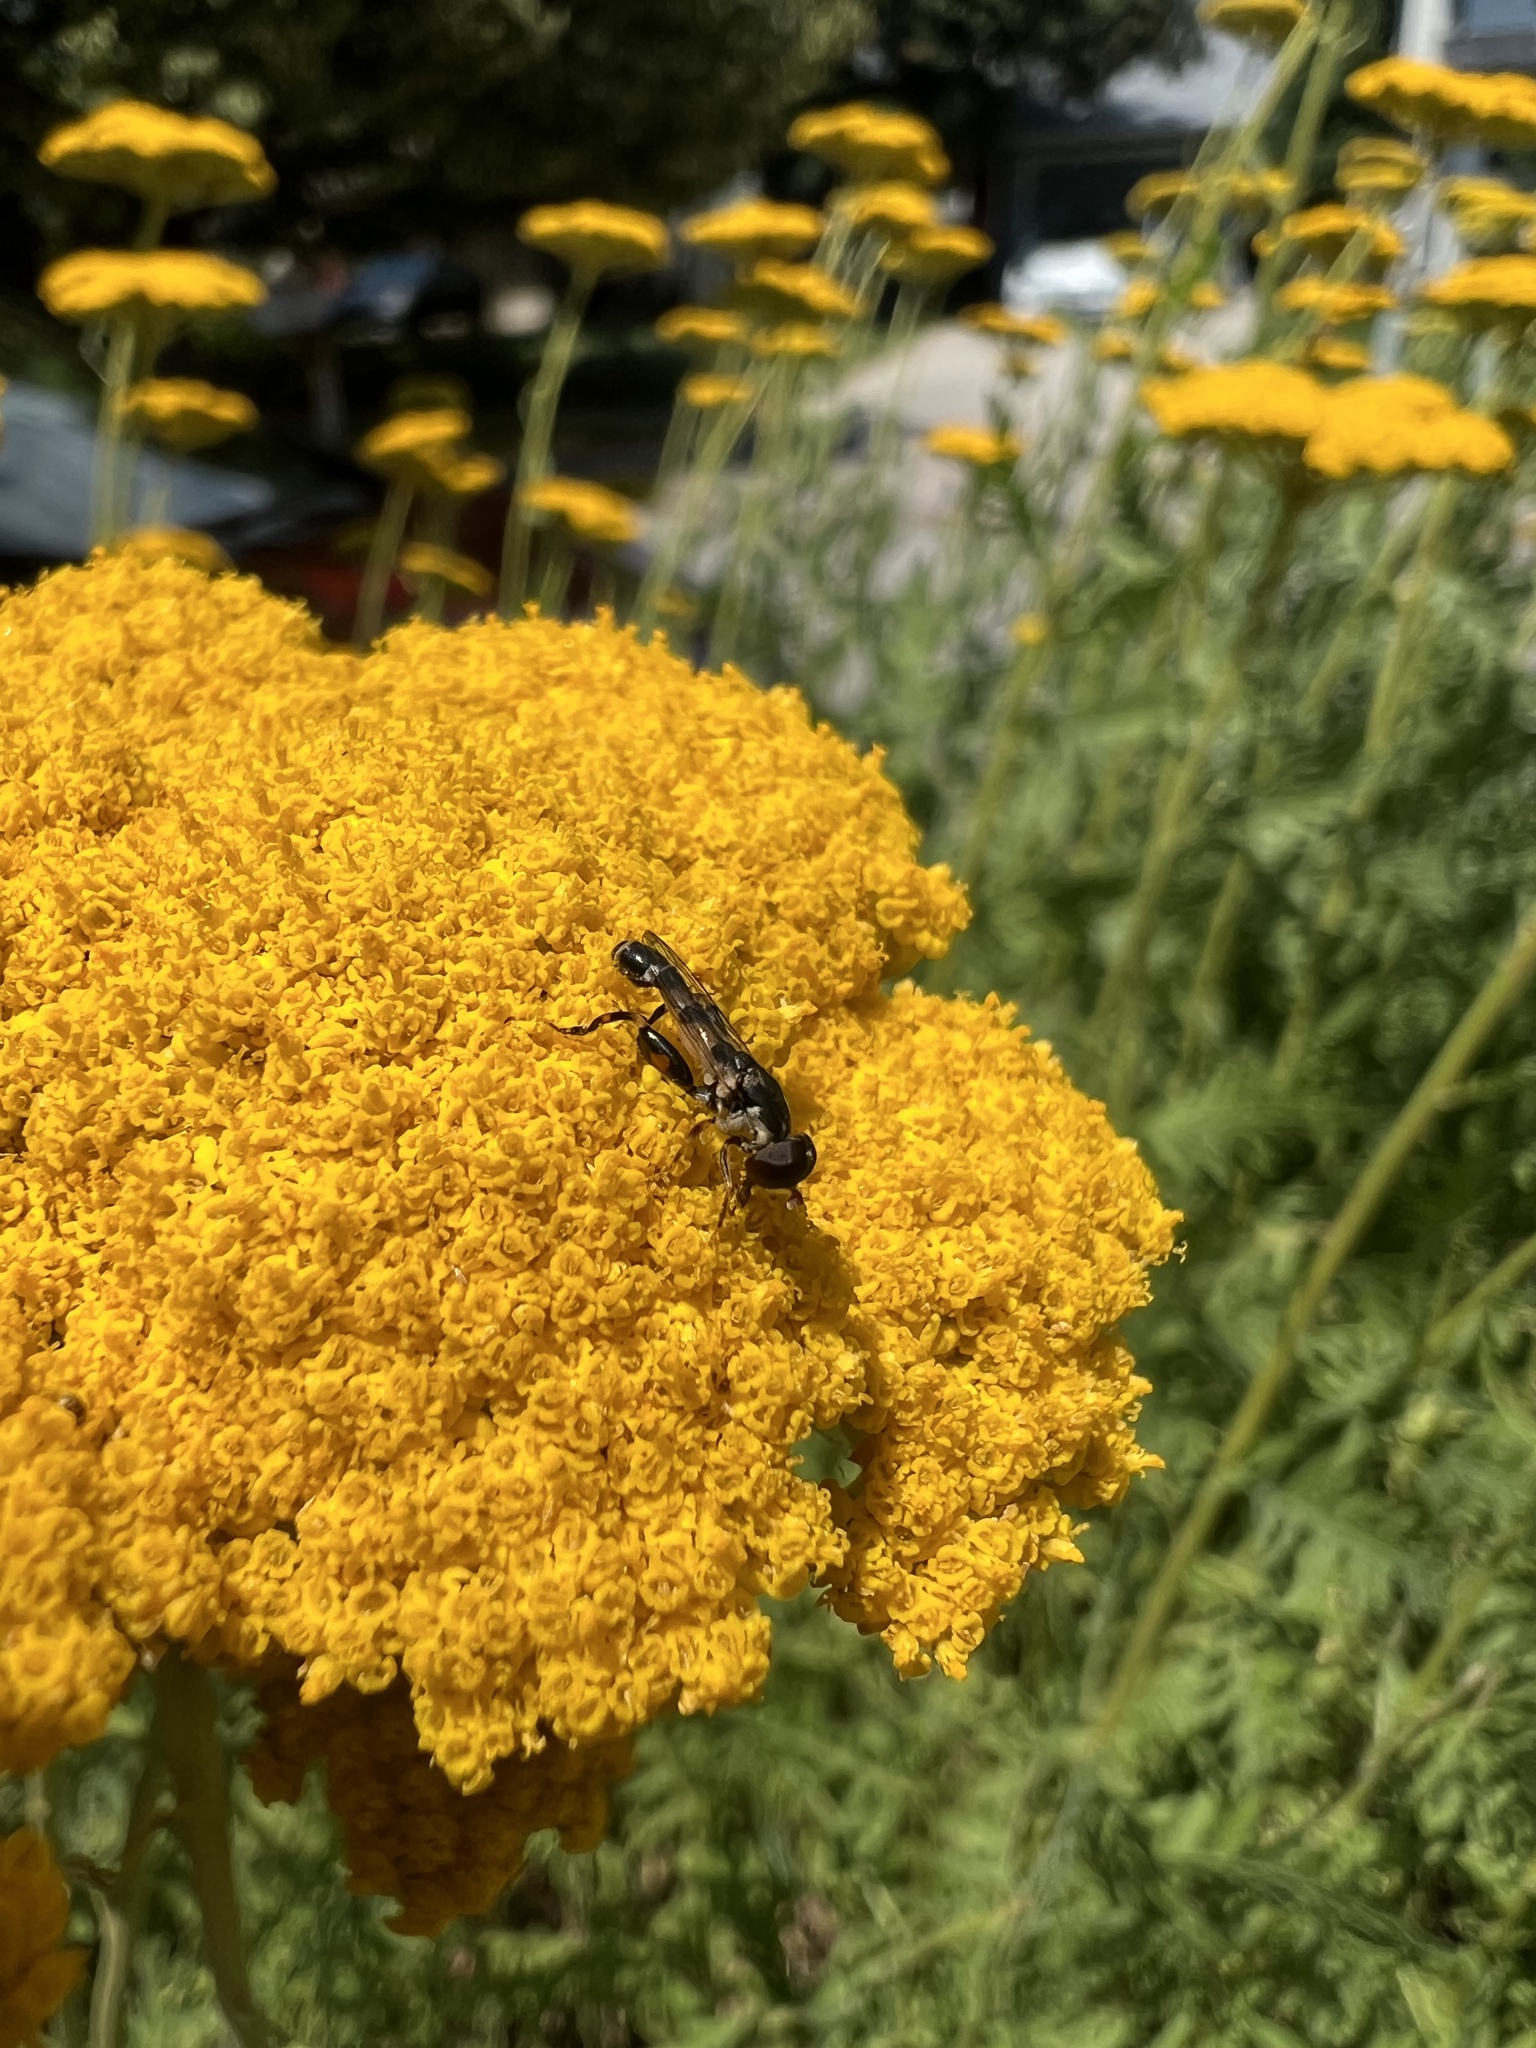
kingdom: Animalia
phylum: Arthropoda
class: Insecta
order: Diptera
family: Syrphidae
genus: Syritta
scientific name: Syritta pipiens
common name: Hover fly
